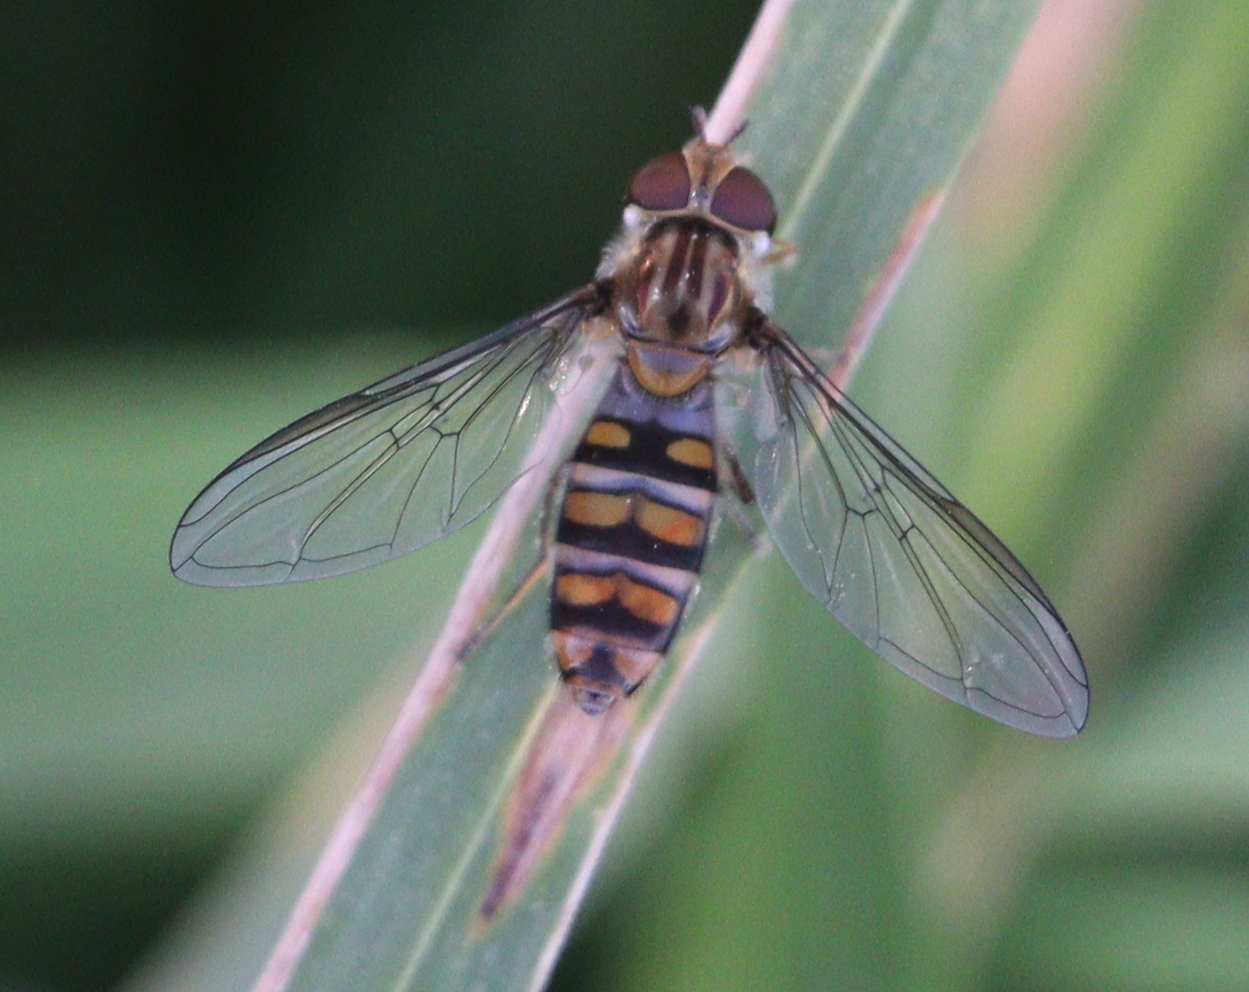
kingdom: Animalia
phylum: Arthropoda
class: Insecta
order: Diptera
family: Syrphidae
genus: Episyrphus
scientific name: Episyrphus balteatus
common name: Marmalade hoverfly
